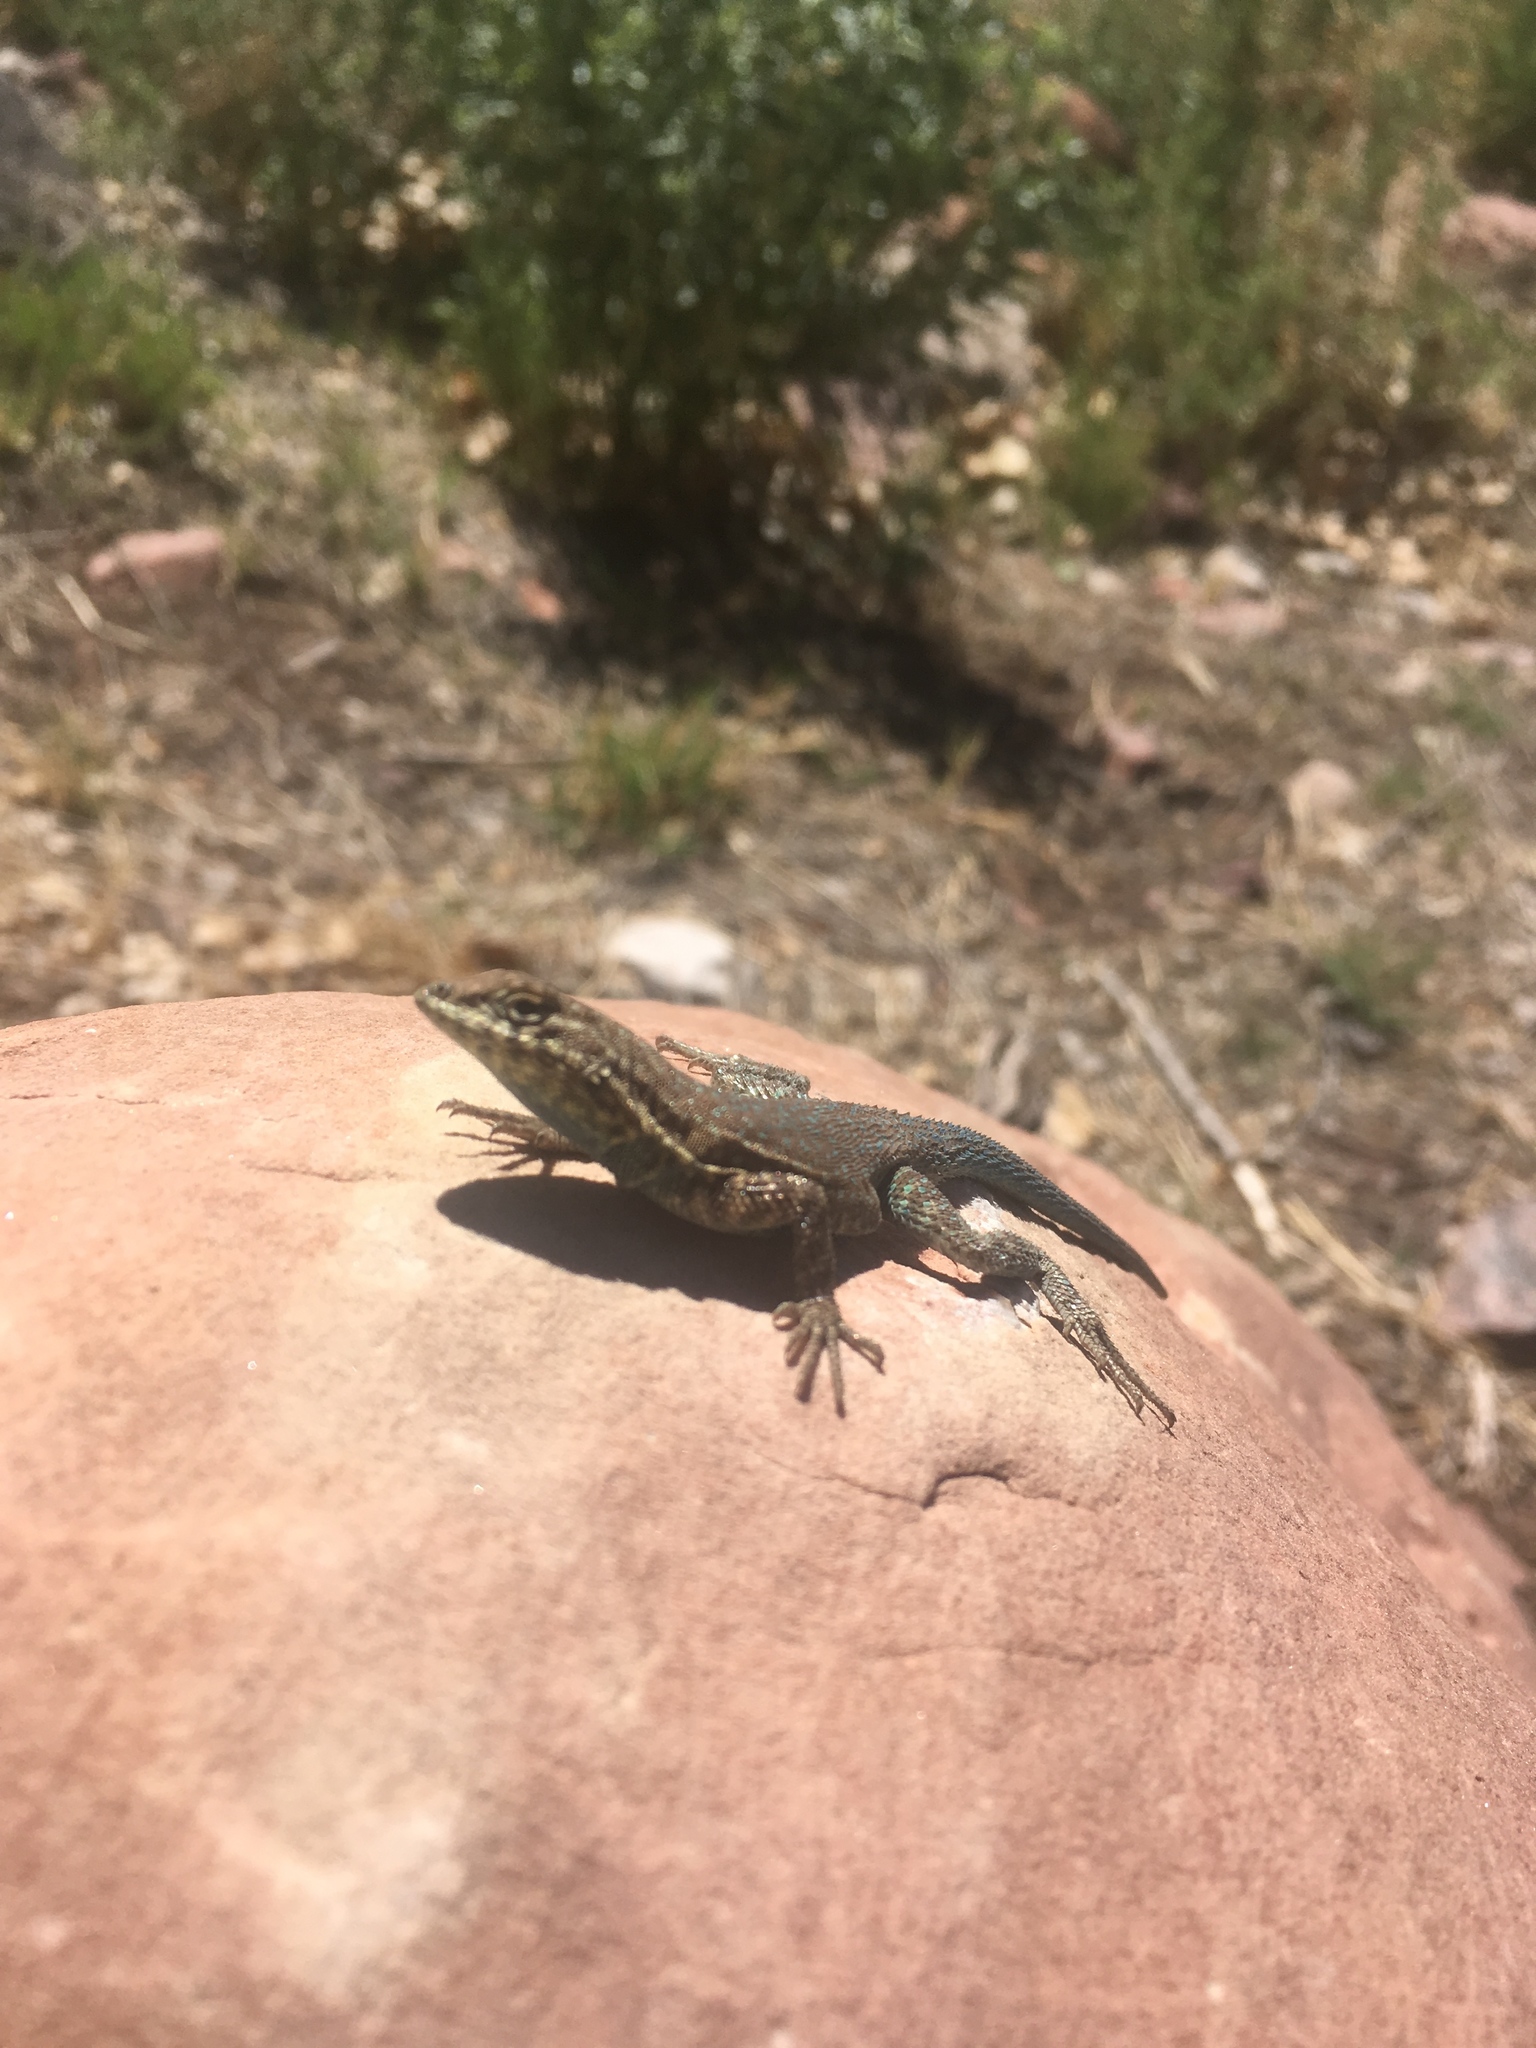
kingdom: Animalia
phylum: Chordata
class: Squamata
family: Phrynosomatidae
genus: Uta
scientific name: Uta stansburiana
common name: Side-blotched lizard
